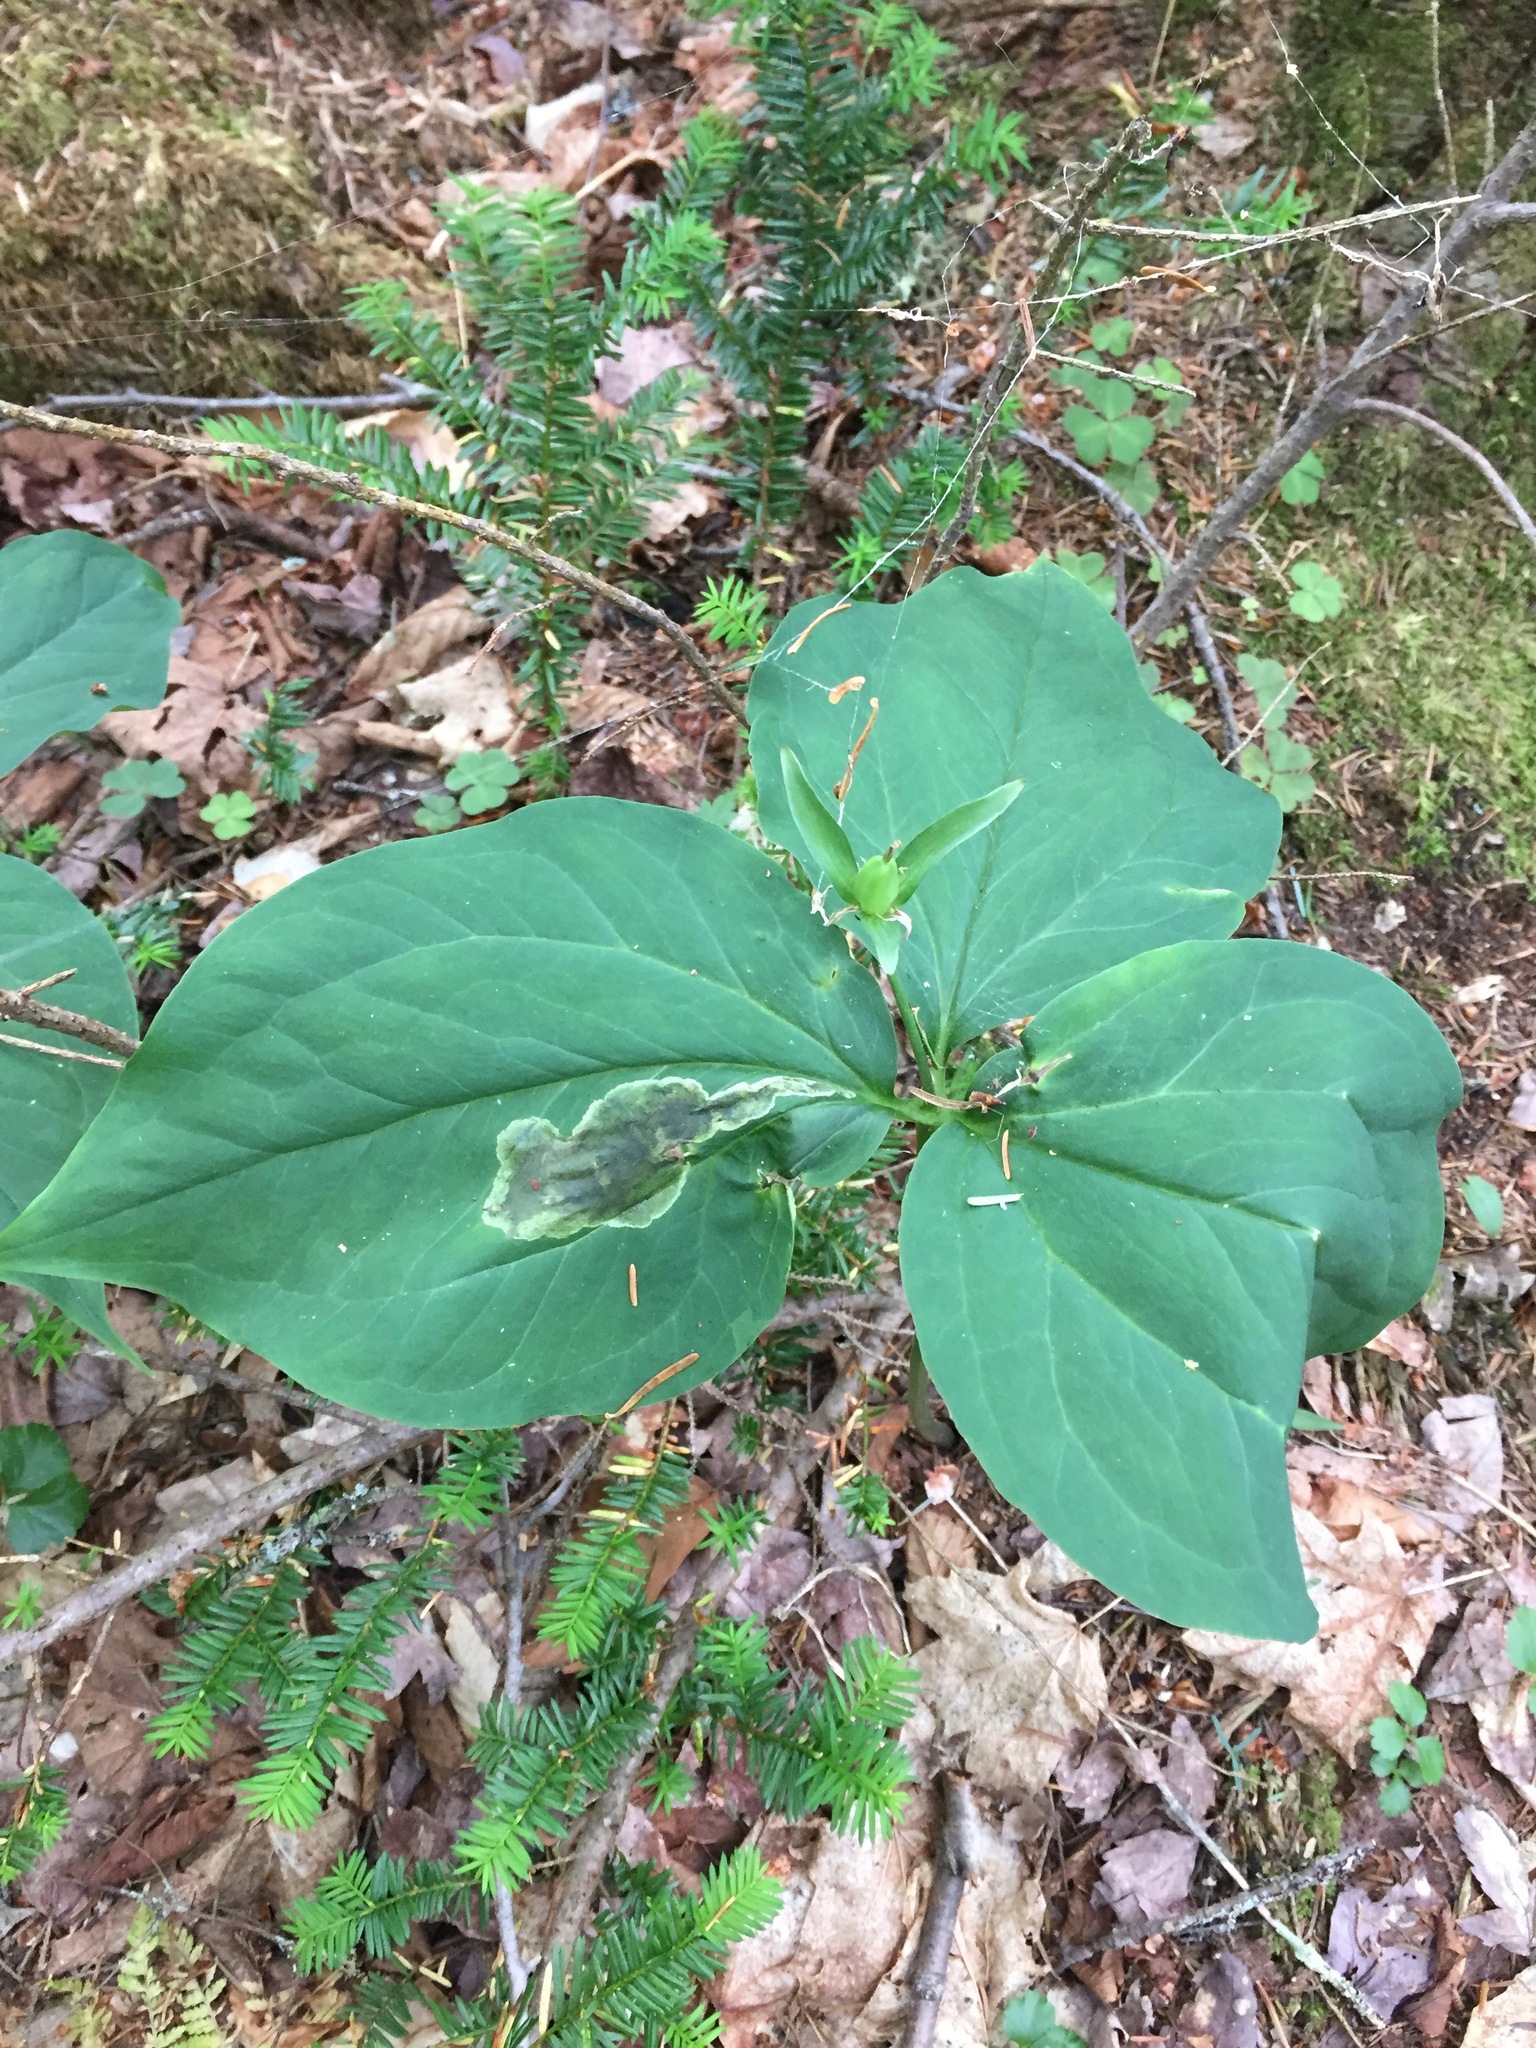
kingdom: Plantae
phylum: Tracheophyta
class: Liliopsida
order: Liliales
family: Melanthiaceae
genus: Trillium
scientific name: Trillium undulatum
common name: Paint trillium
